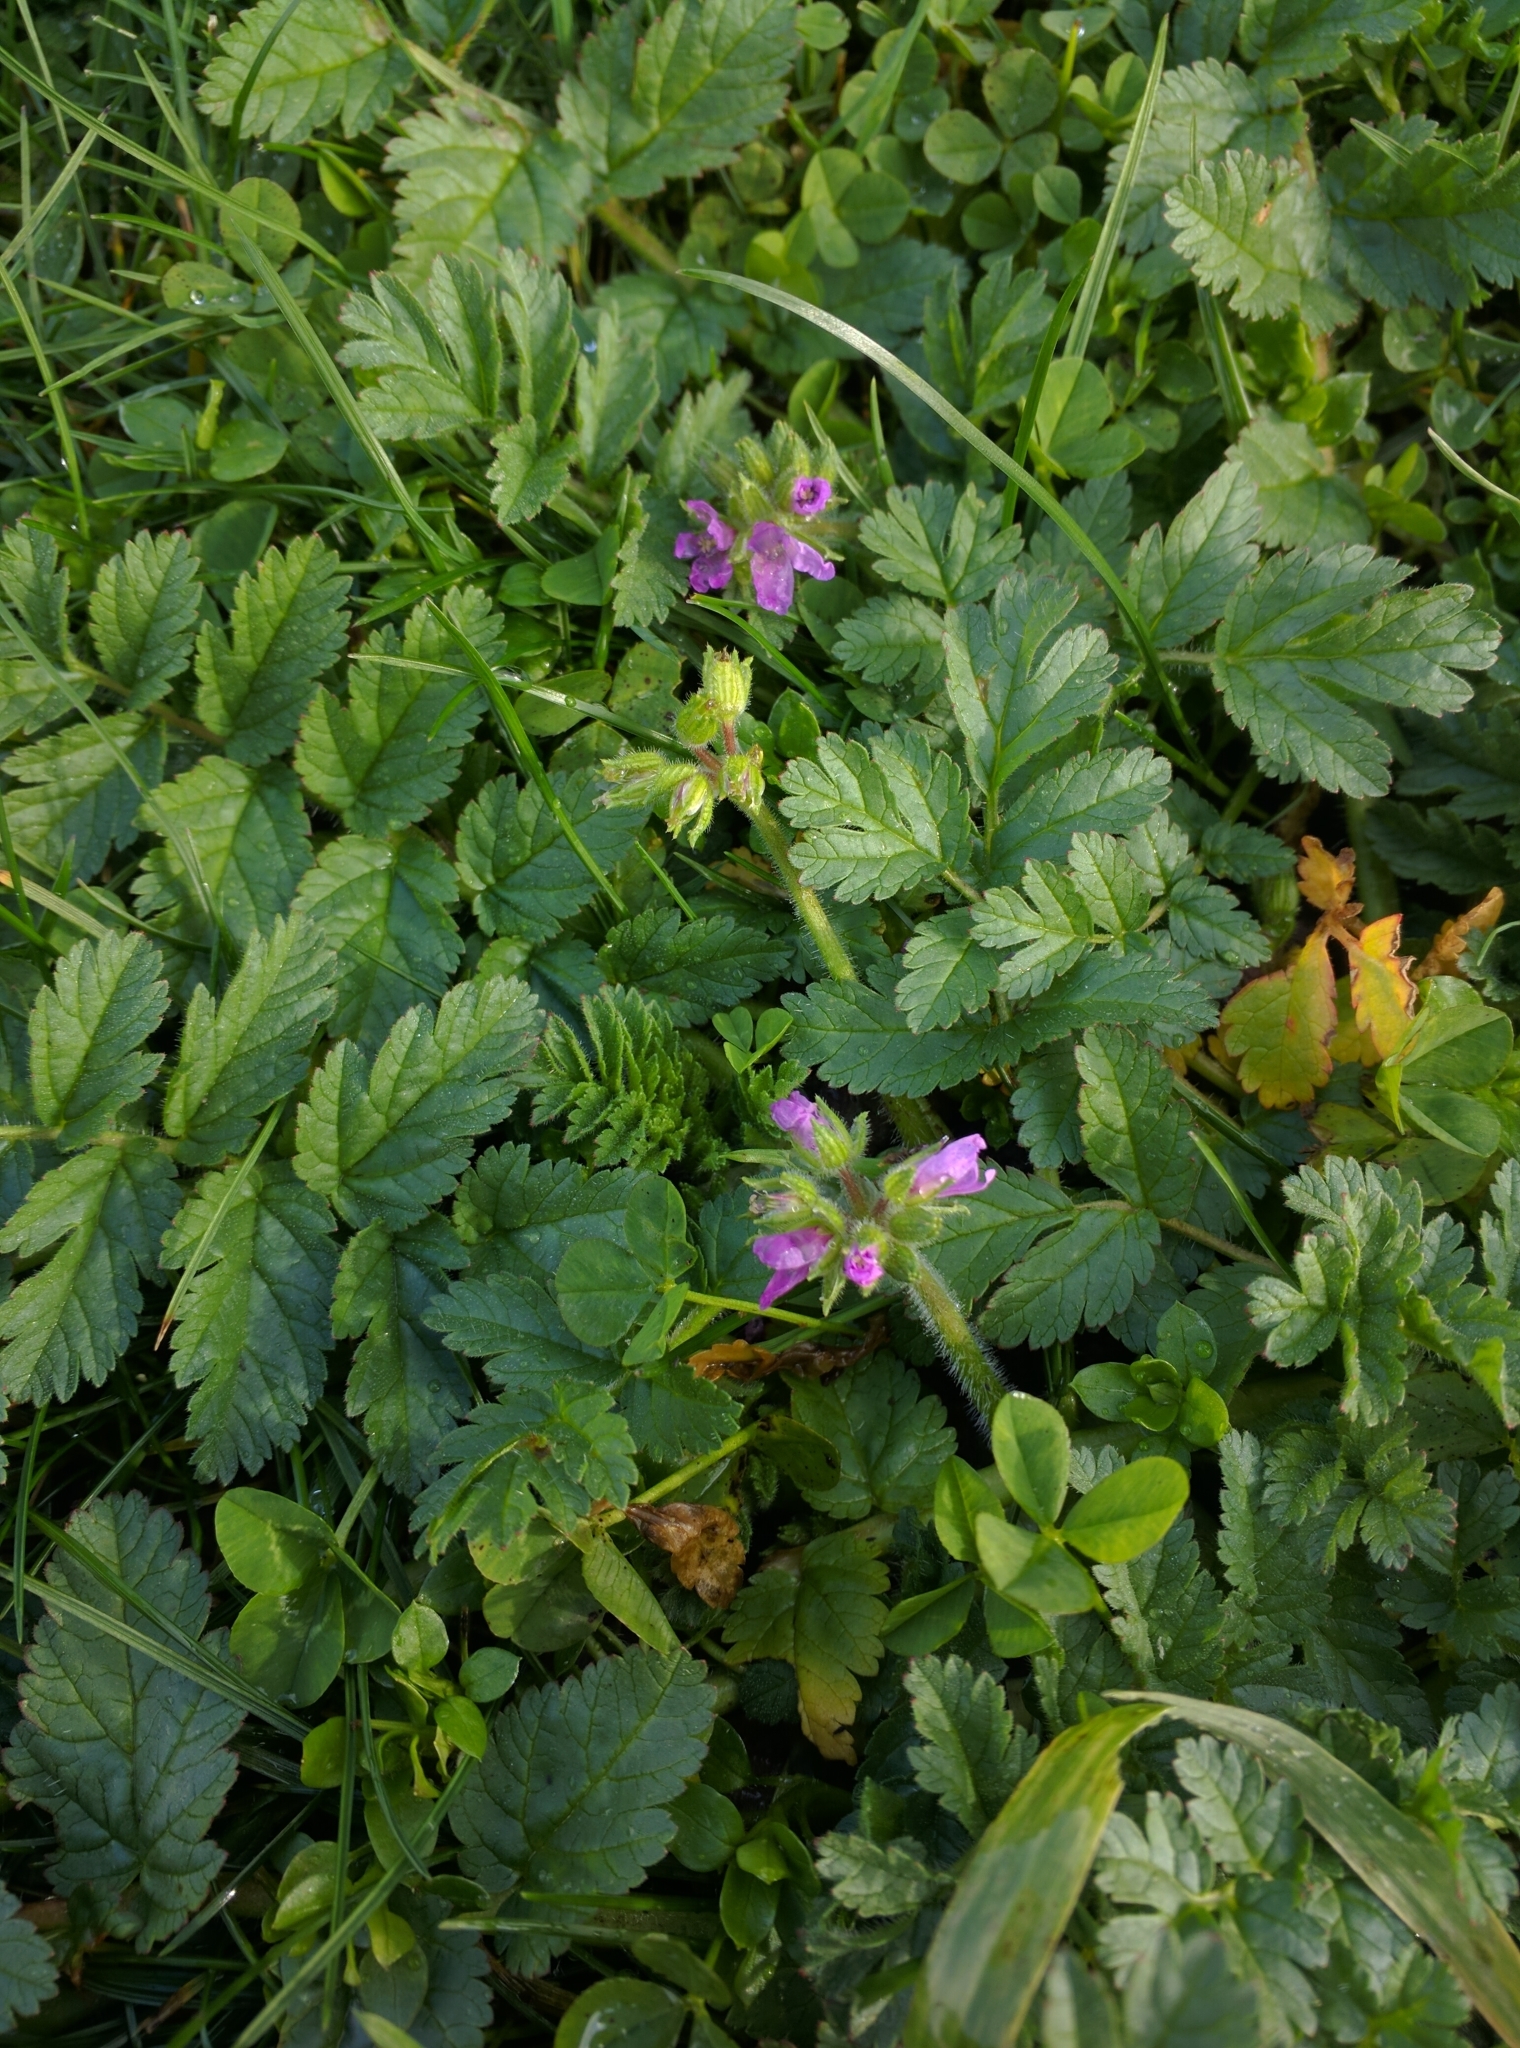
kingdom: Plantae
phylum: Tracheophyta
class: Magnoliopsida
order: Geraniales
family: Geraniaceae
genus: Erodium
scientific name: Erodium moschatum
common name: Musk stork's-bill
